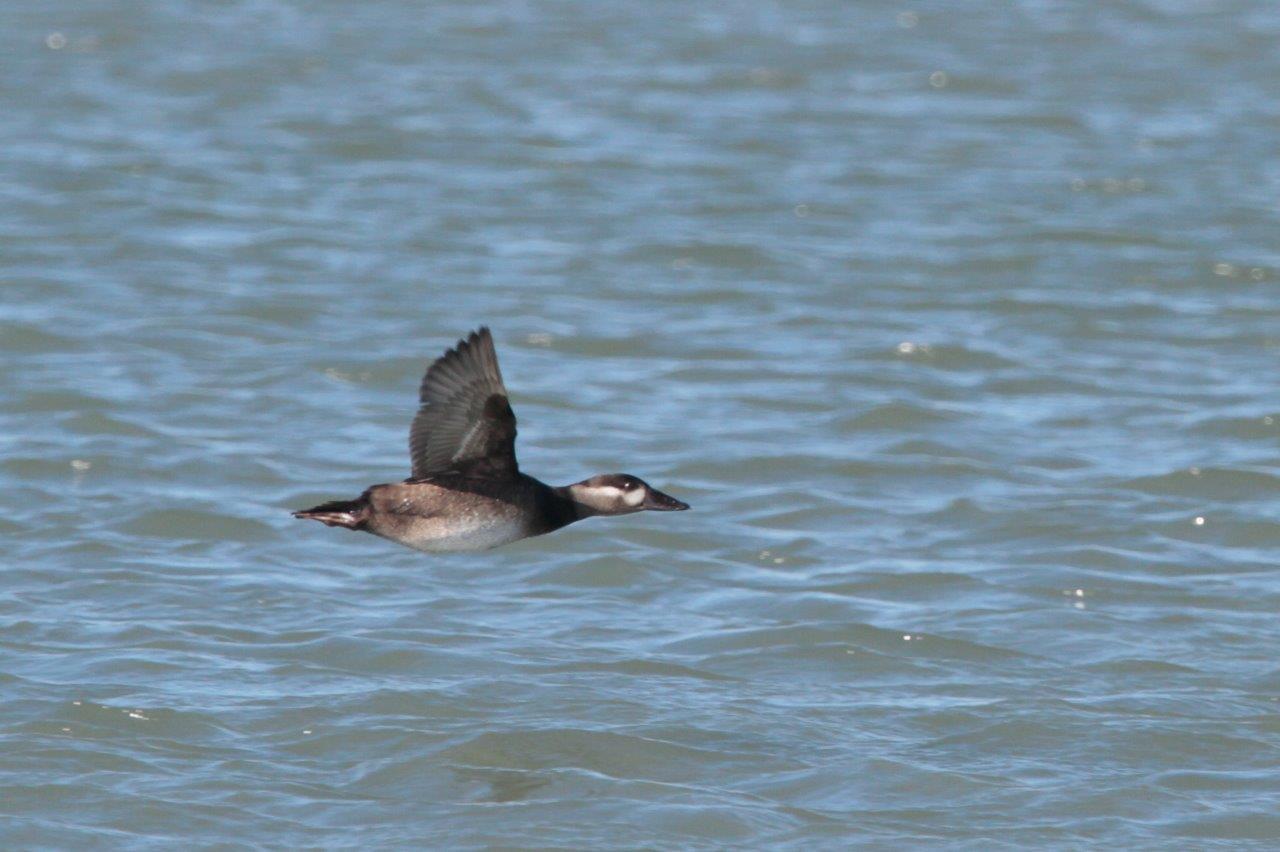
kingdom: Animalia
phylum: Chordata
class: Aves
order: Anseriformes
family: Anatidae
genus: Melanitta
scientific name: Melanitta perspicillata
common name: Surf scoter
